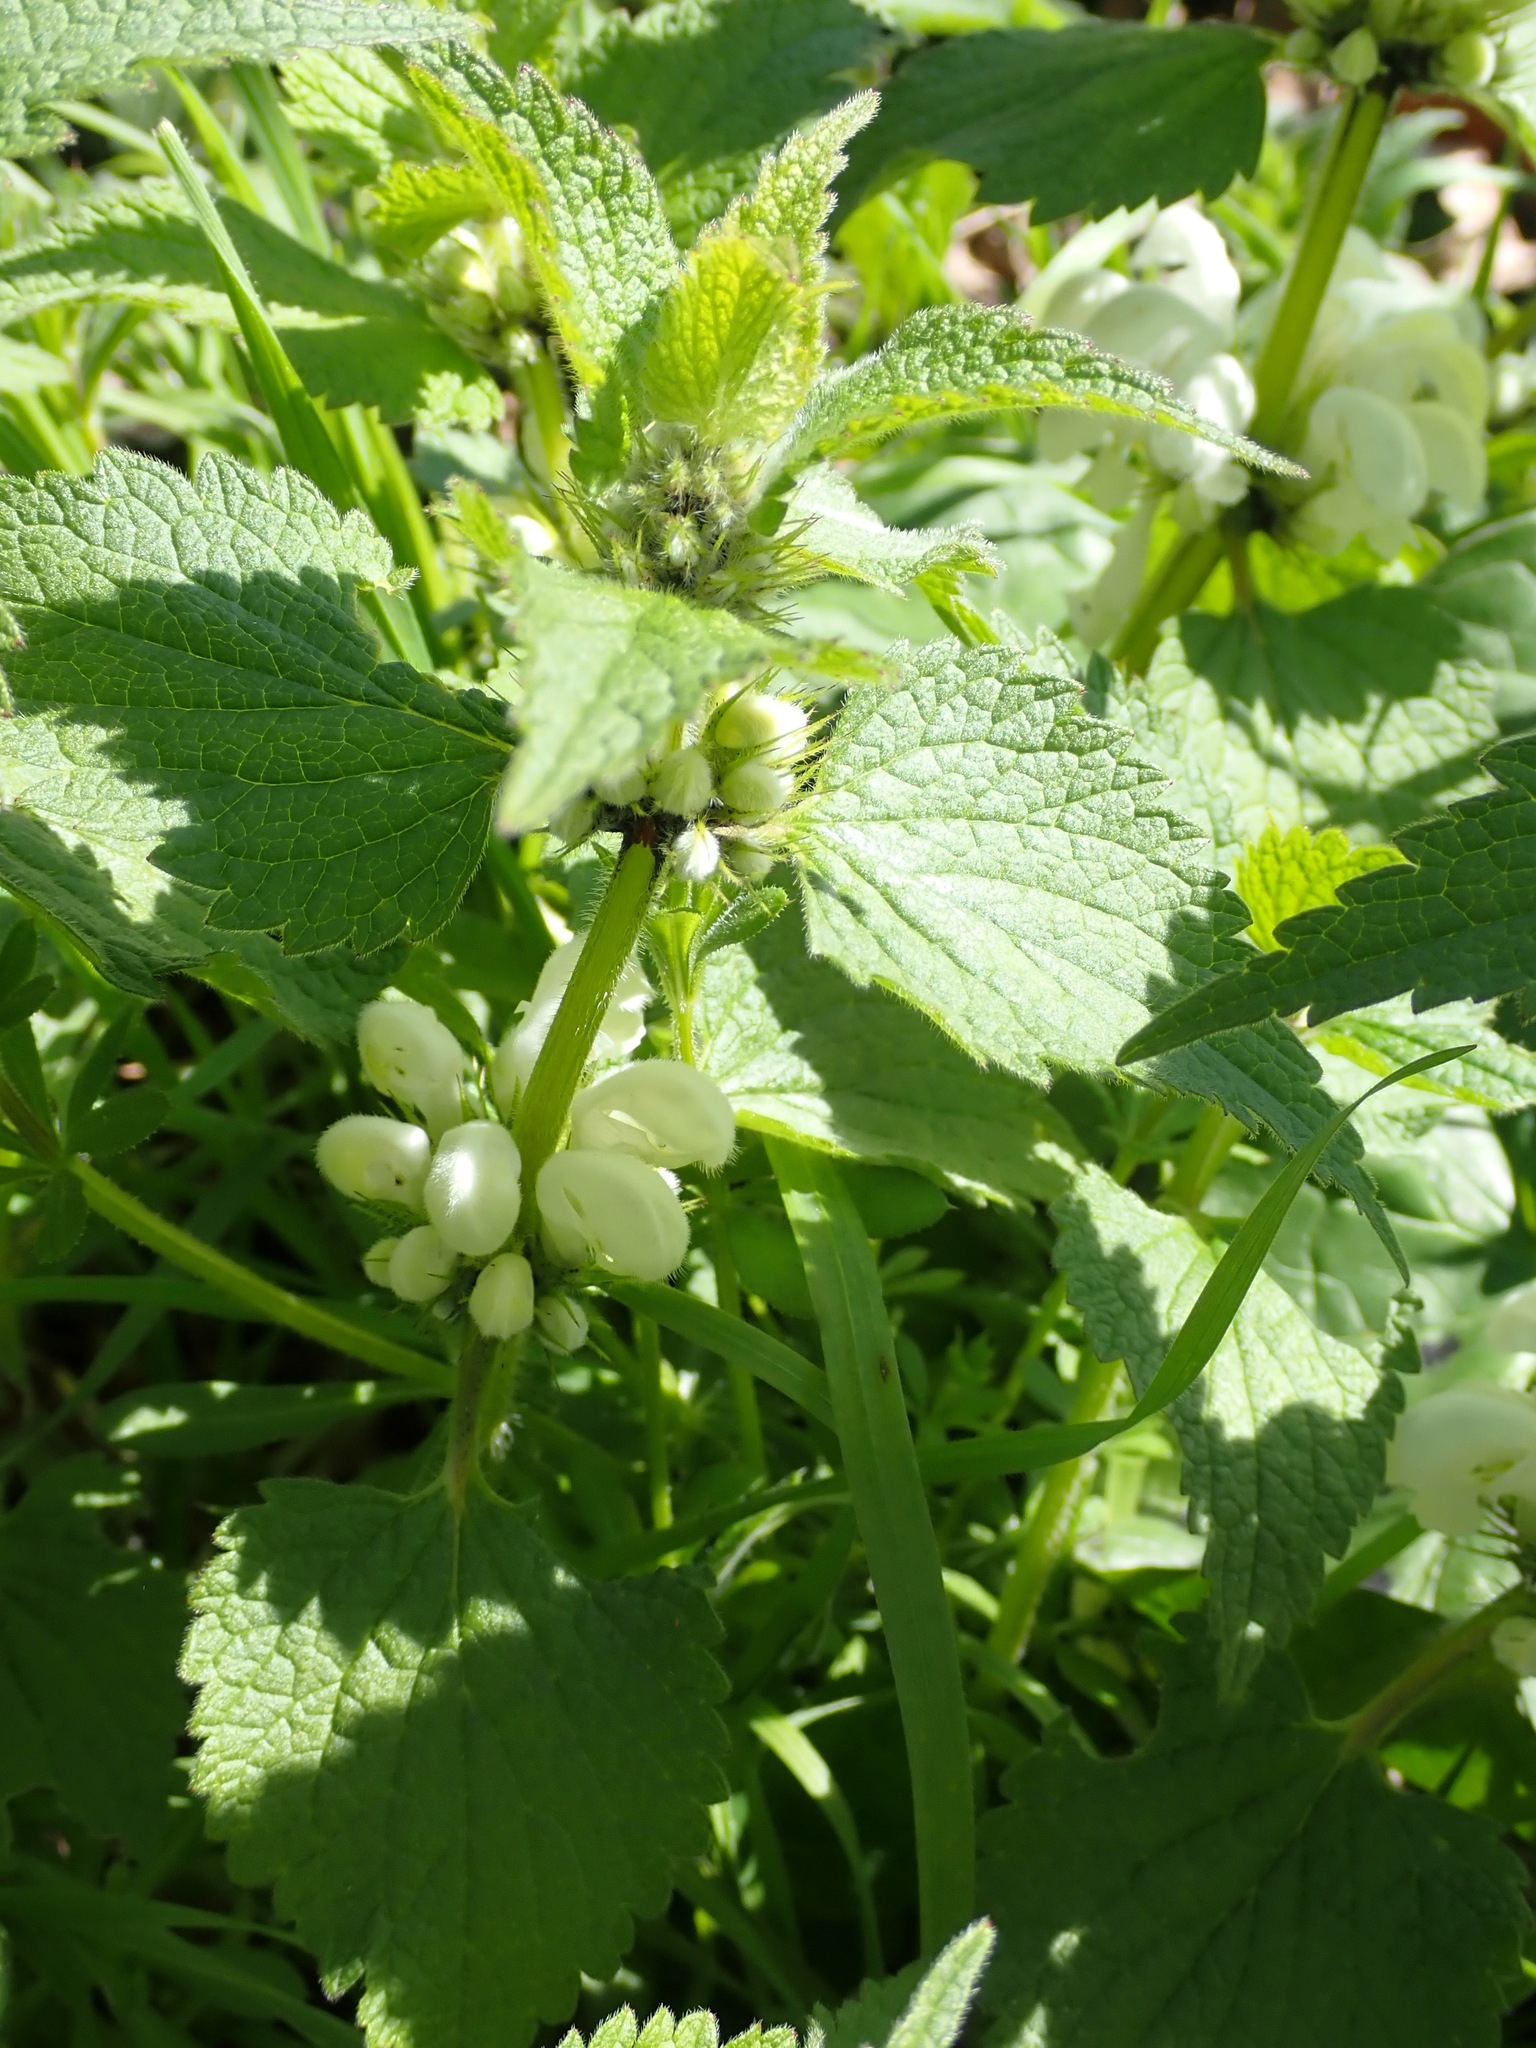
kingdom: Plantae
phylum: Tracheophyta
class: Magnoliopsida
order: Lamiales
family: Lamiaceae
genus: Lamium
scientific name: Lamium album
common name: White dead-nettle
